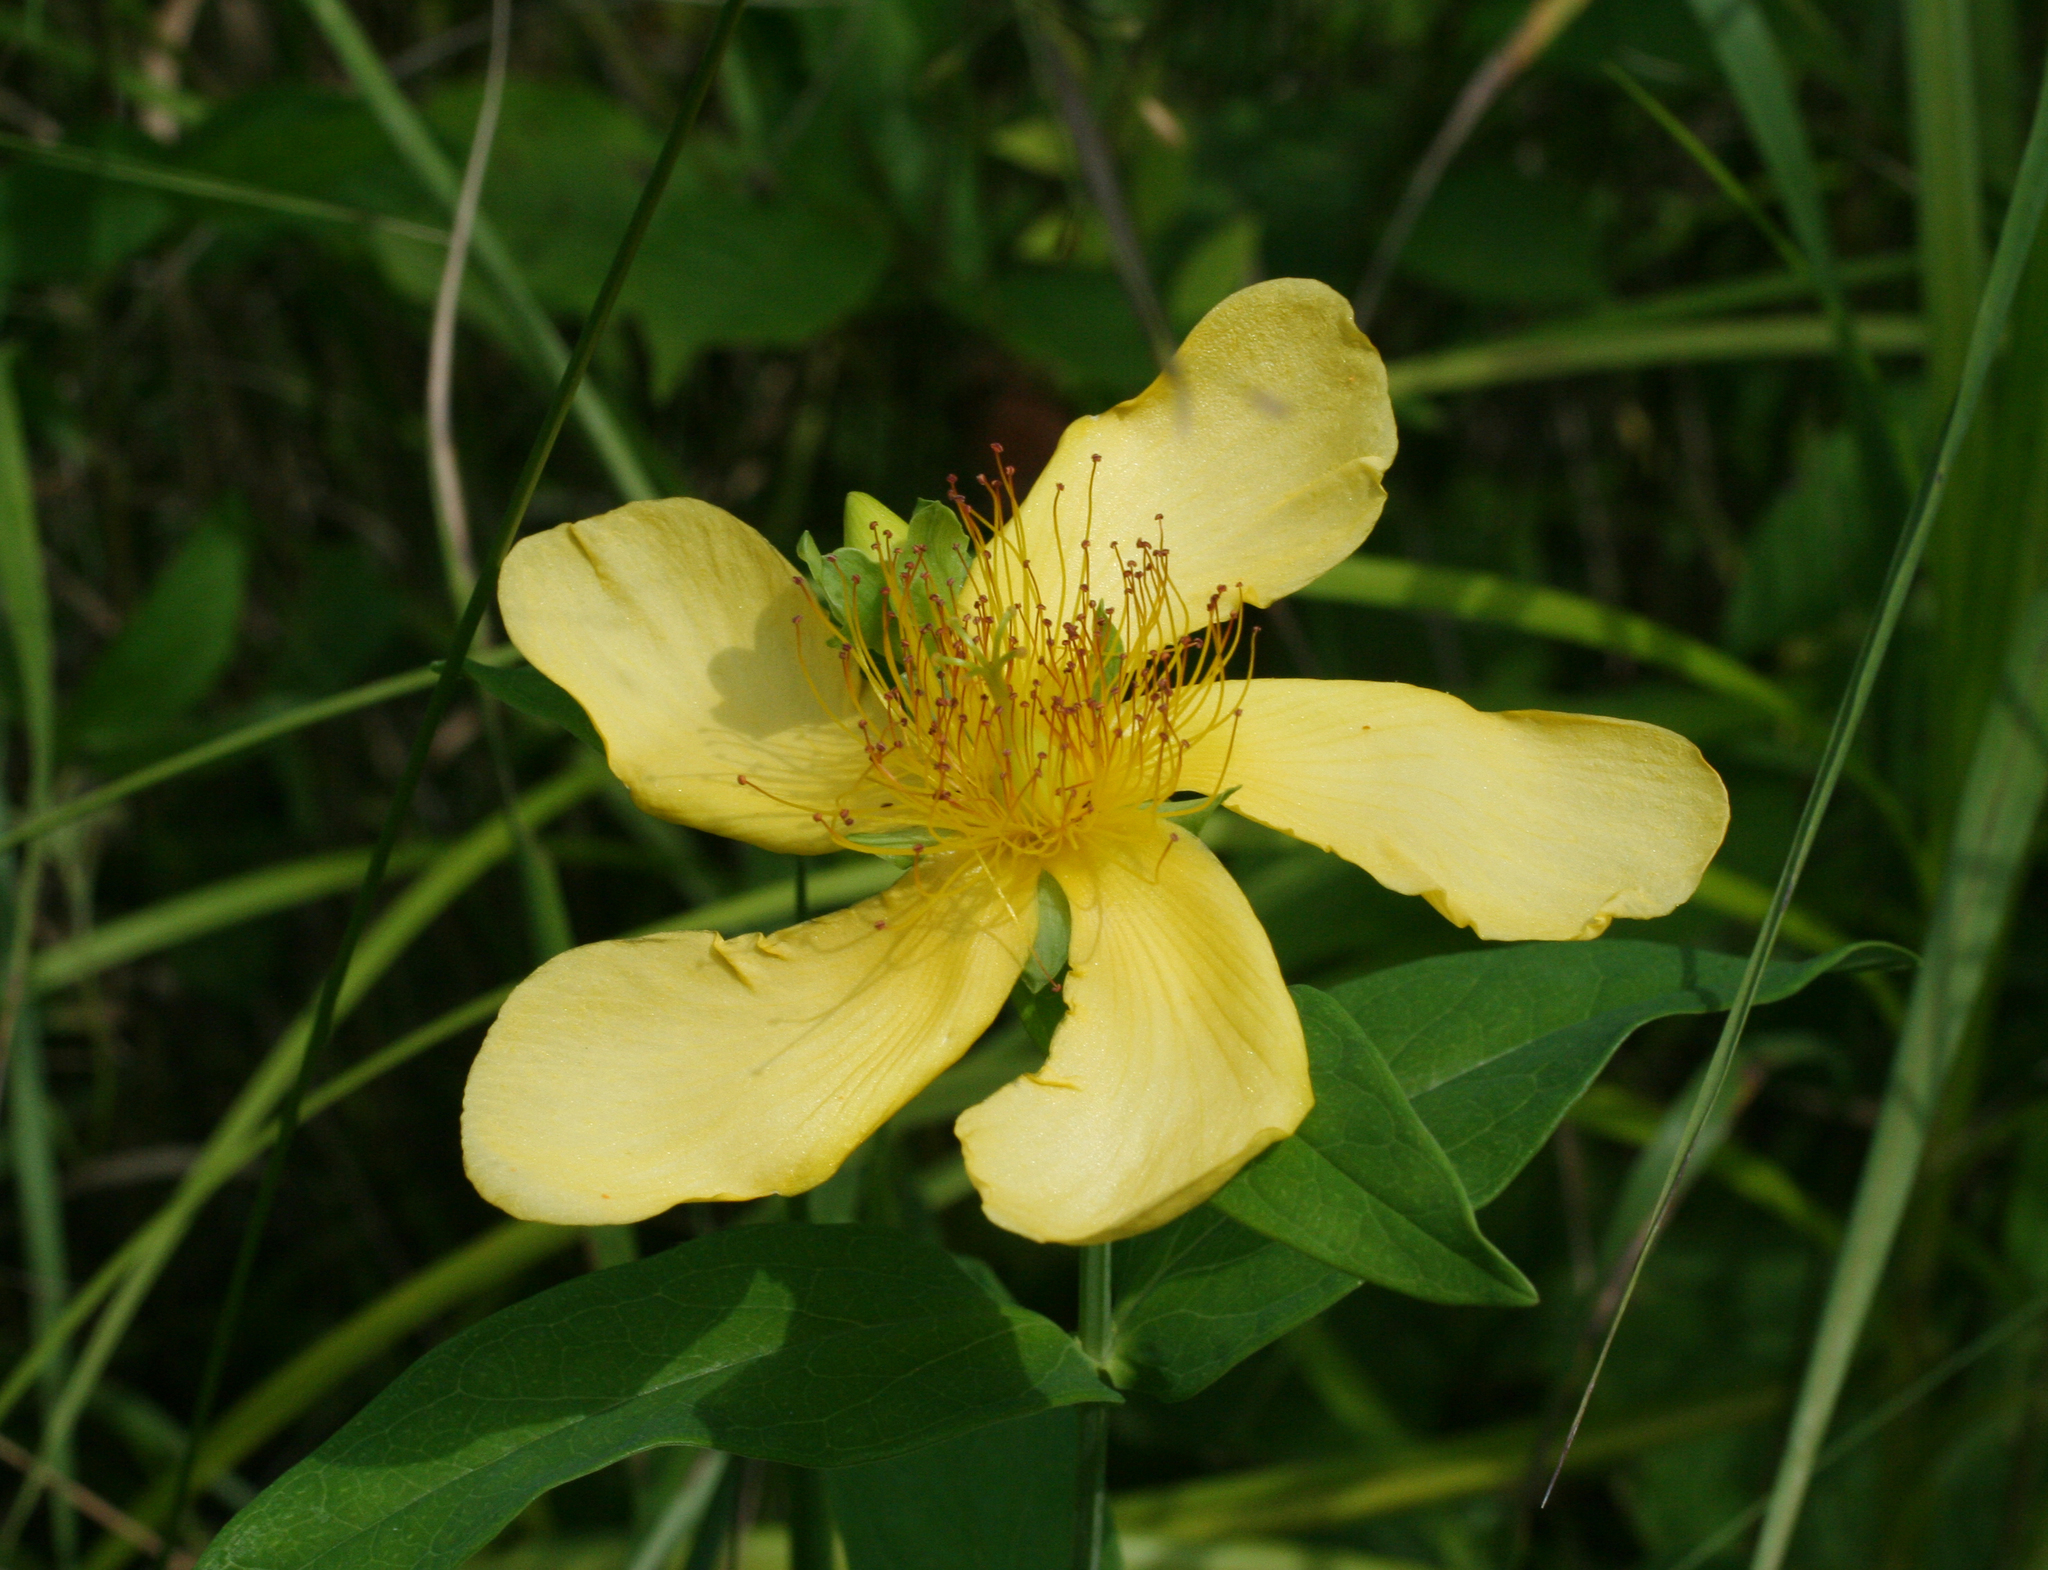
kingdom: Plantae
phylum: Tracheophyta
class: Magnoliopsida
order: Malpighiales
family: Hypericaceae
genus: Hypericum
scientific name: Hypericum ascyron
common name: Giant st. john's-wort
